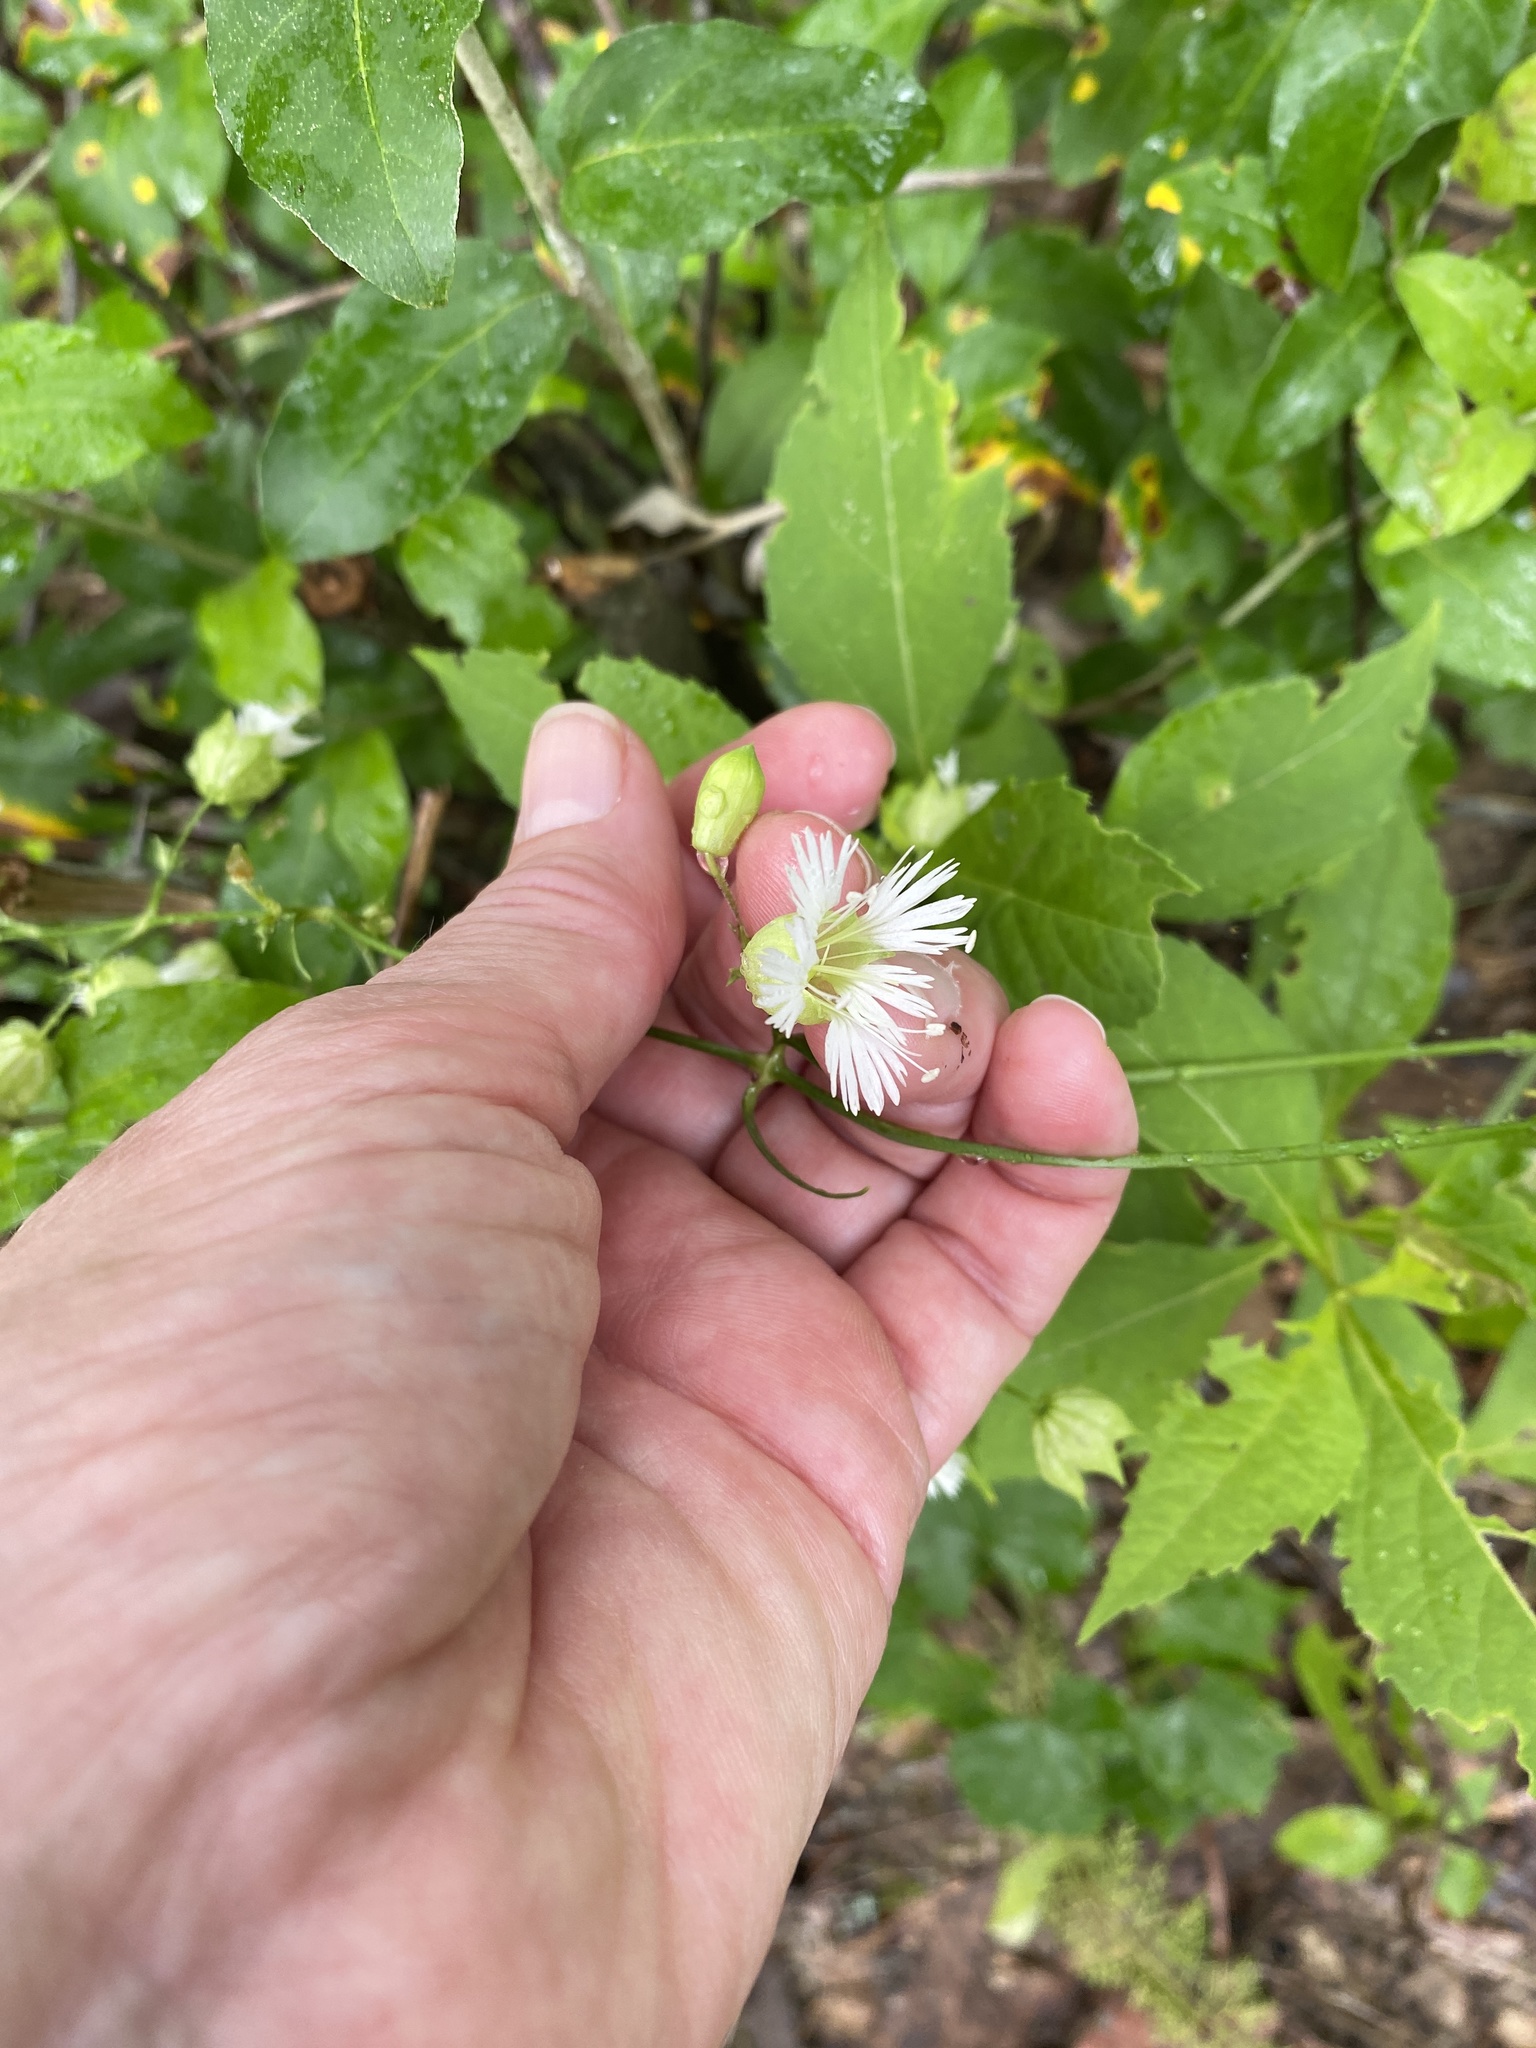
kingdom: Plantae
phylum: Tracheophyta
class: Magnoliopsida
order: Caryophyllales
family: Caryophyllaceae
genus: Silene
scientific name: Silene stellata
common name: Starry campion
